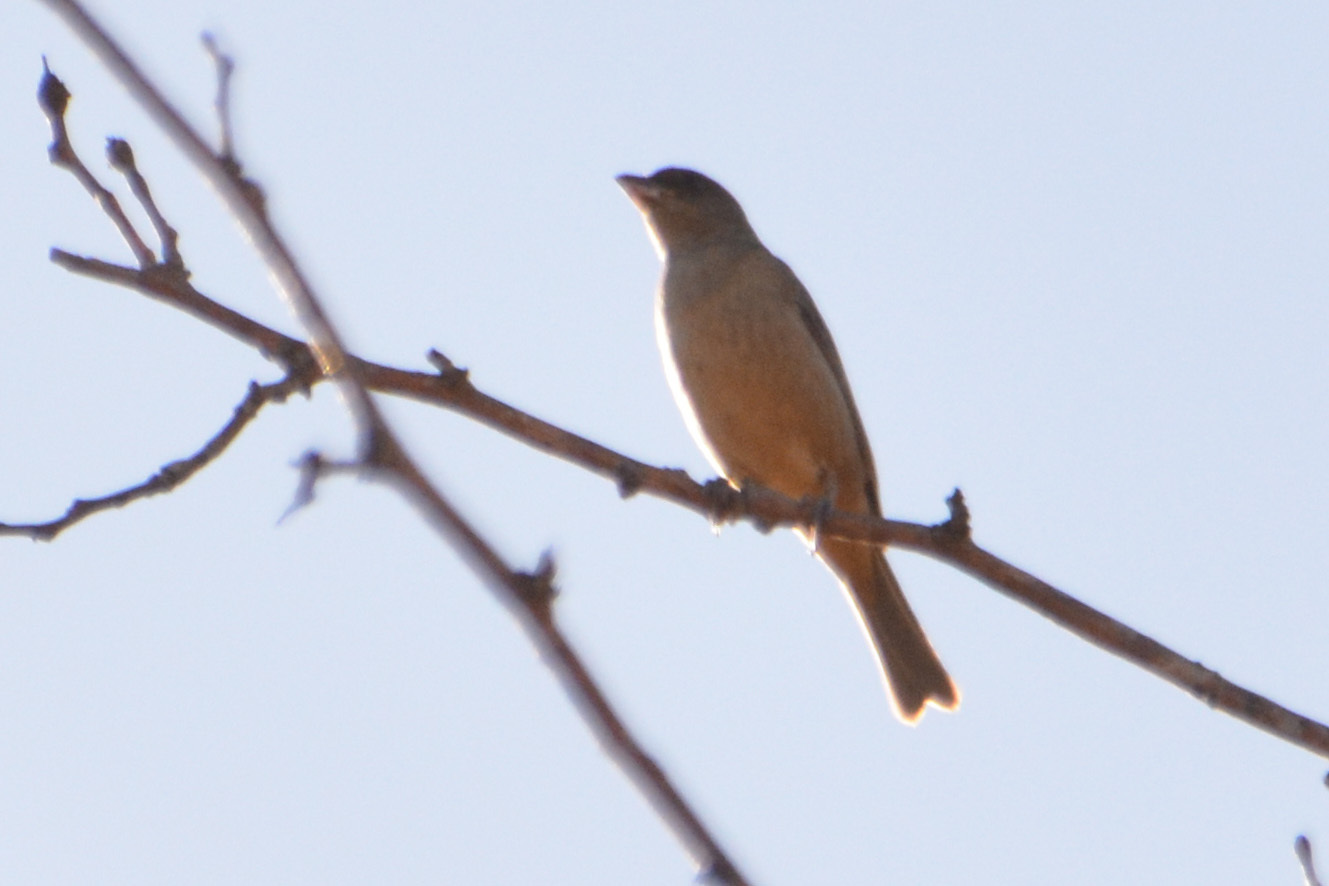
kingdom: Animalia
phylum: Chordata
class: Aves
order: Passeriformes
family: Thraupidae
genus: Rauenia
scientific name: Rauenia bonariensis
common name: Blue-and-yellow tanager
